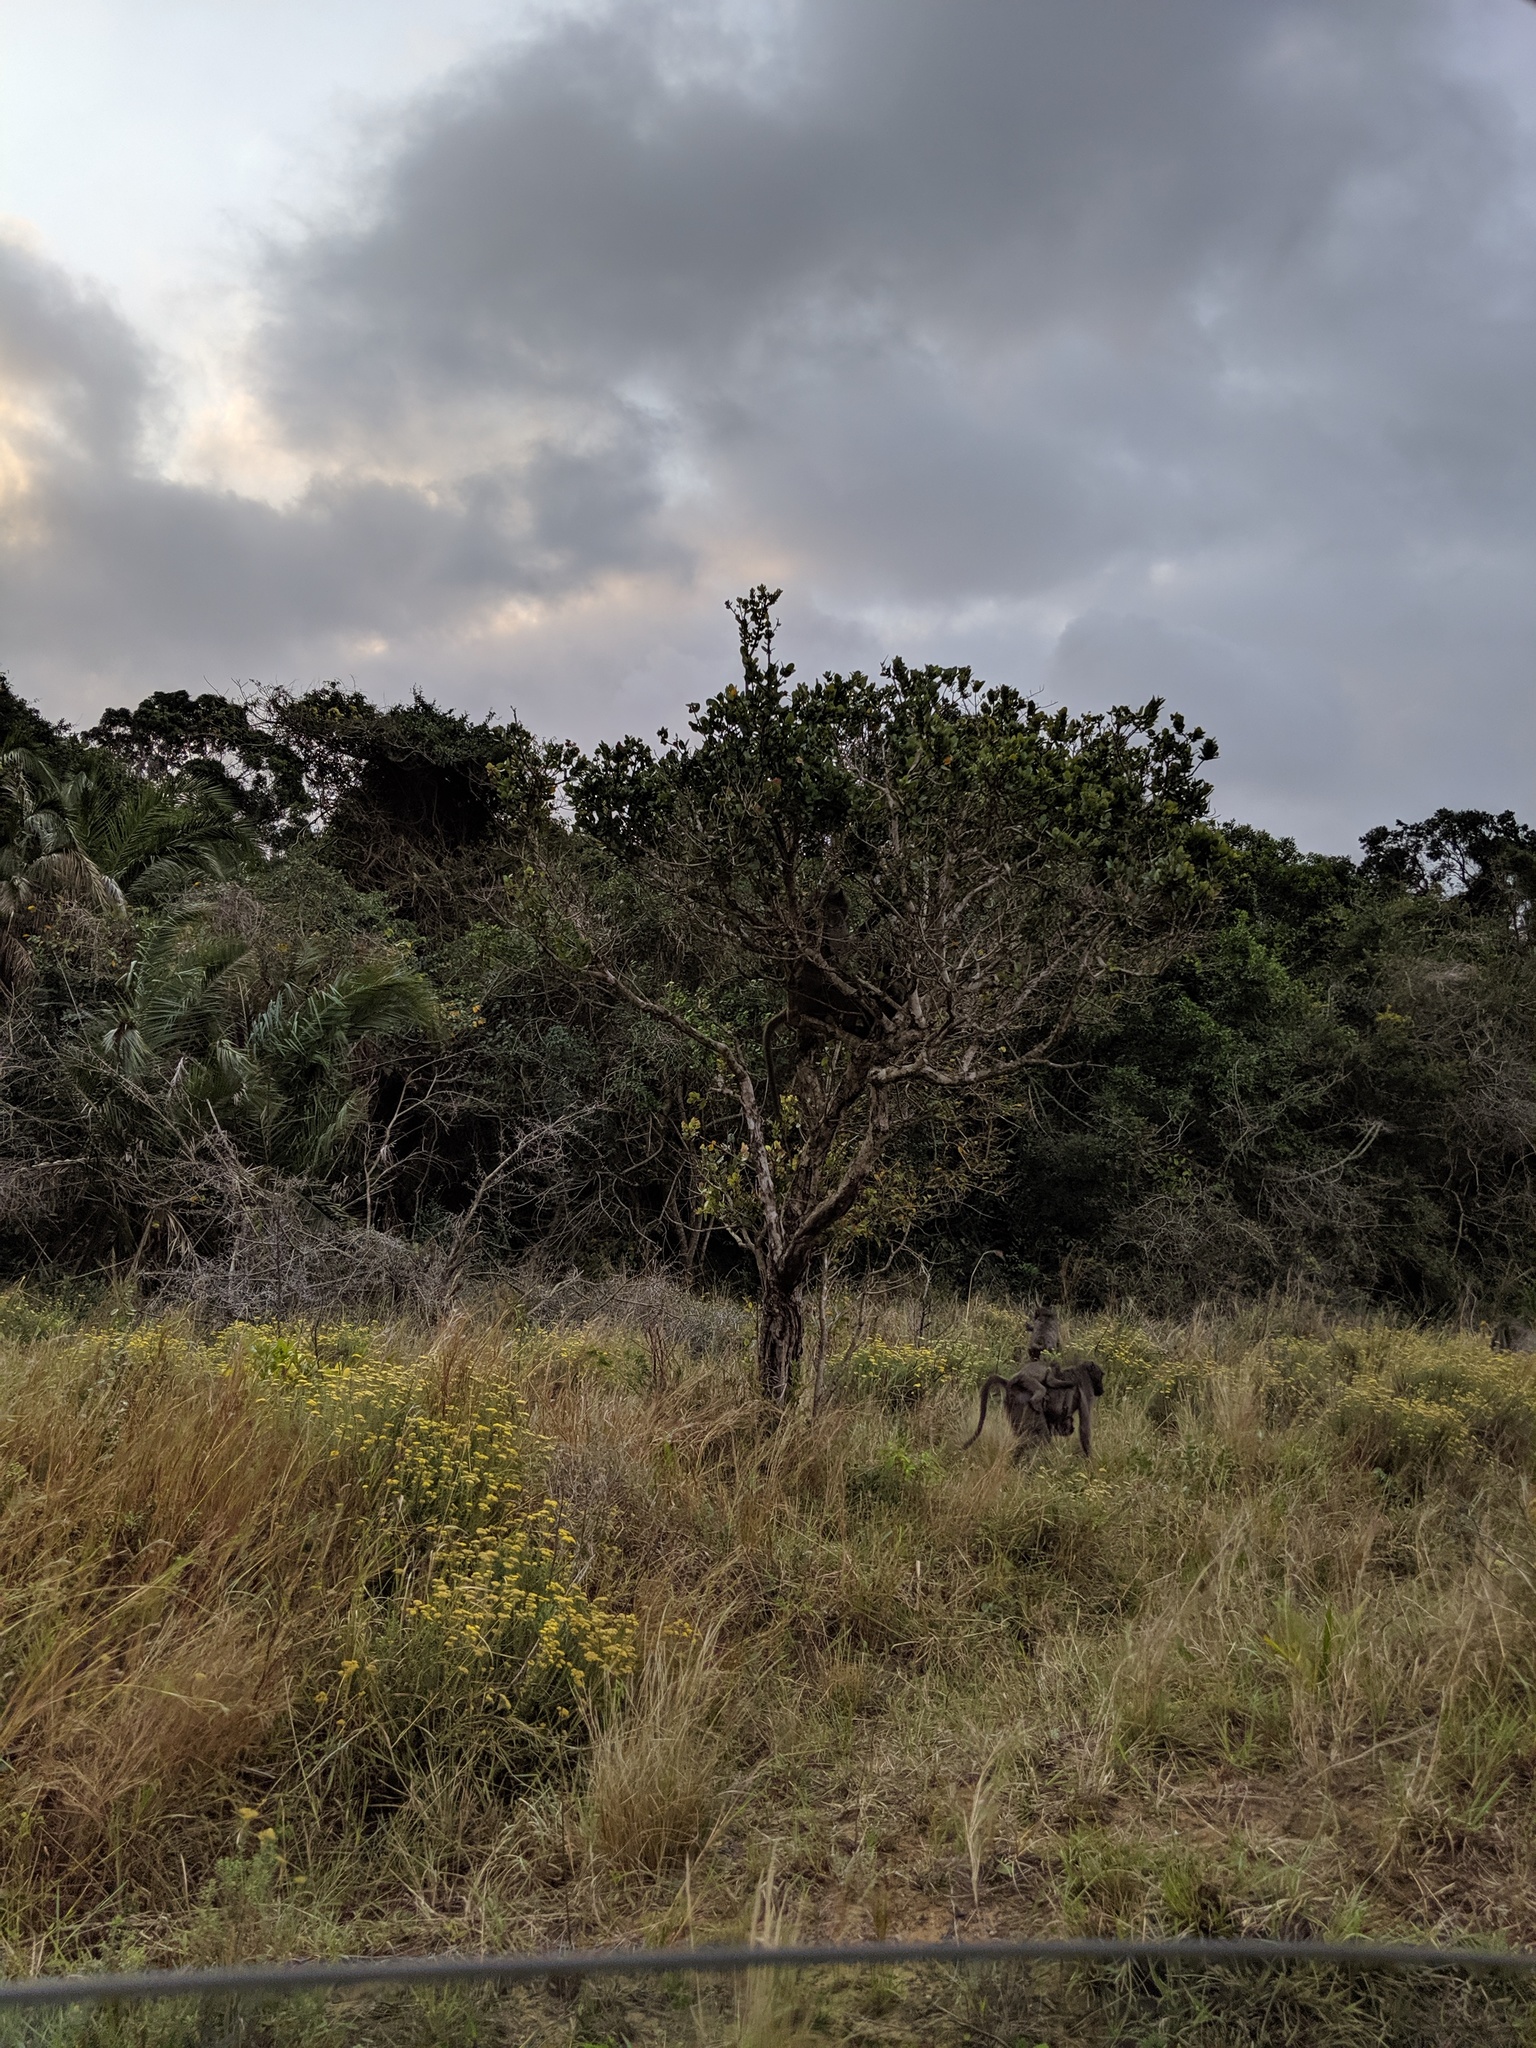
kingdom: Animalia
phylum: Chordata
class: Mammalia
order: Primates
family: Cercopithecidae
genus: Papio
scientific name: Papio ursinus
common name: Chacma baboon
